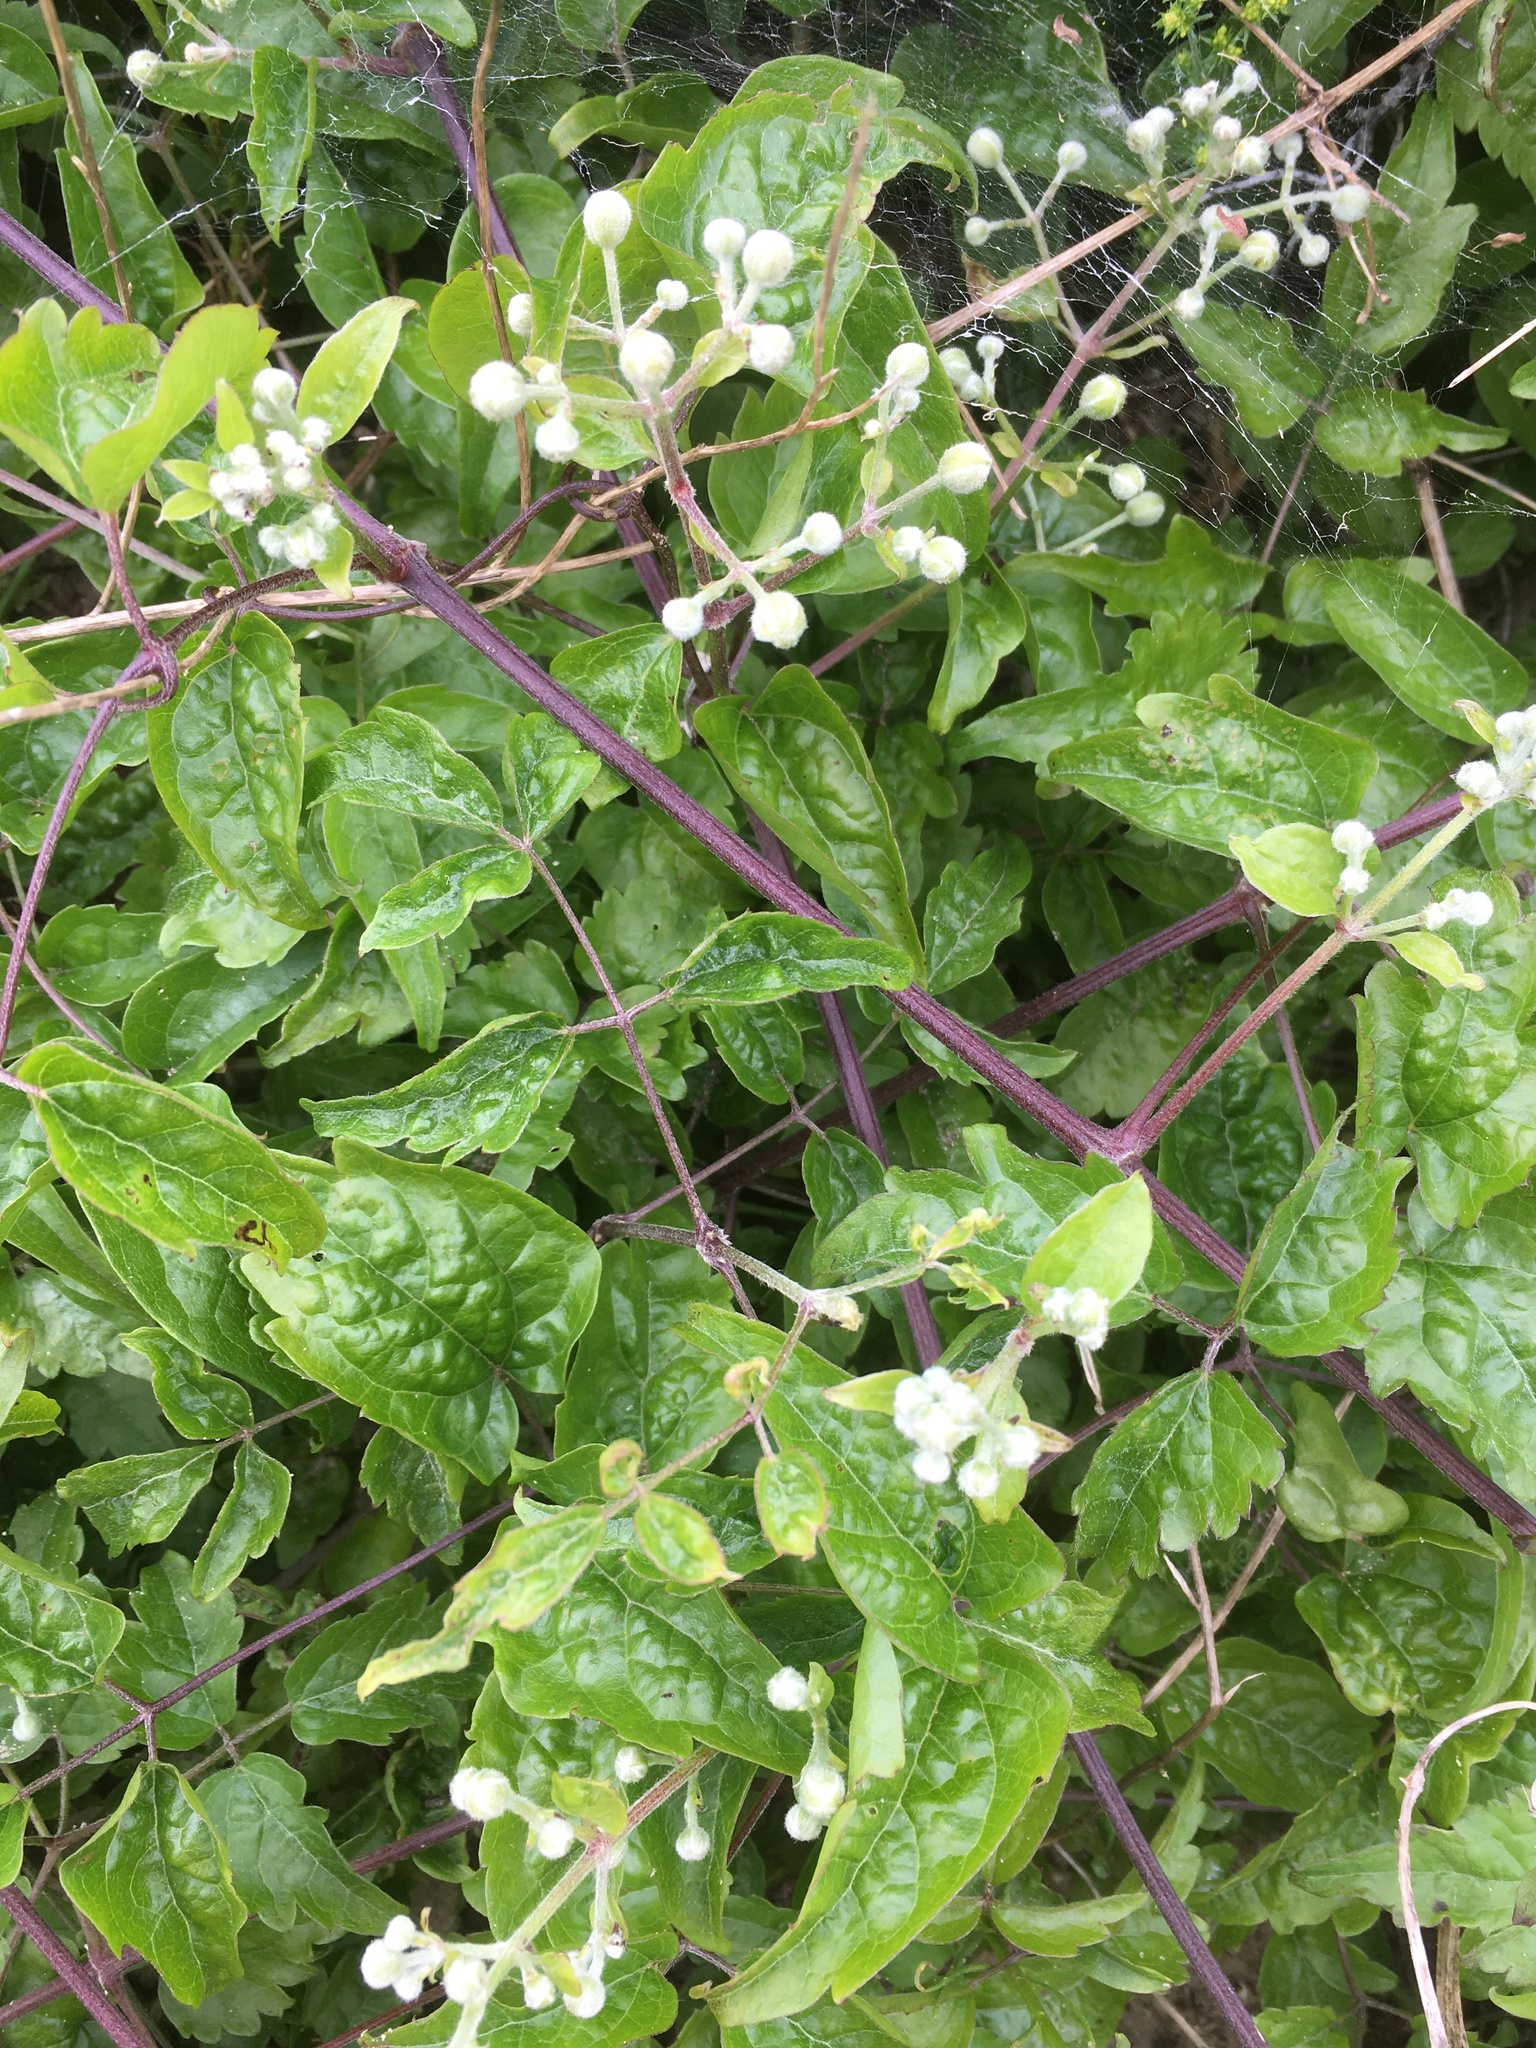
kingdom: Plantae
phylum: Tracheophyta
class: Magnoliopsida
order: Ranunculales
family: Ranunculaceae
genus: Clematis
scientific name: Clematis vitalba
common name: Evergreen clematis
